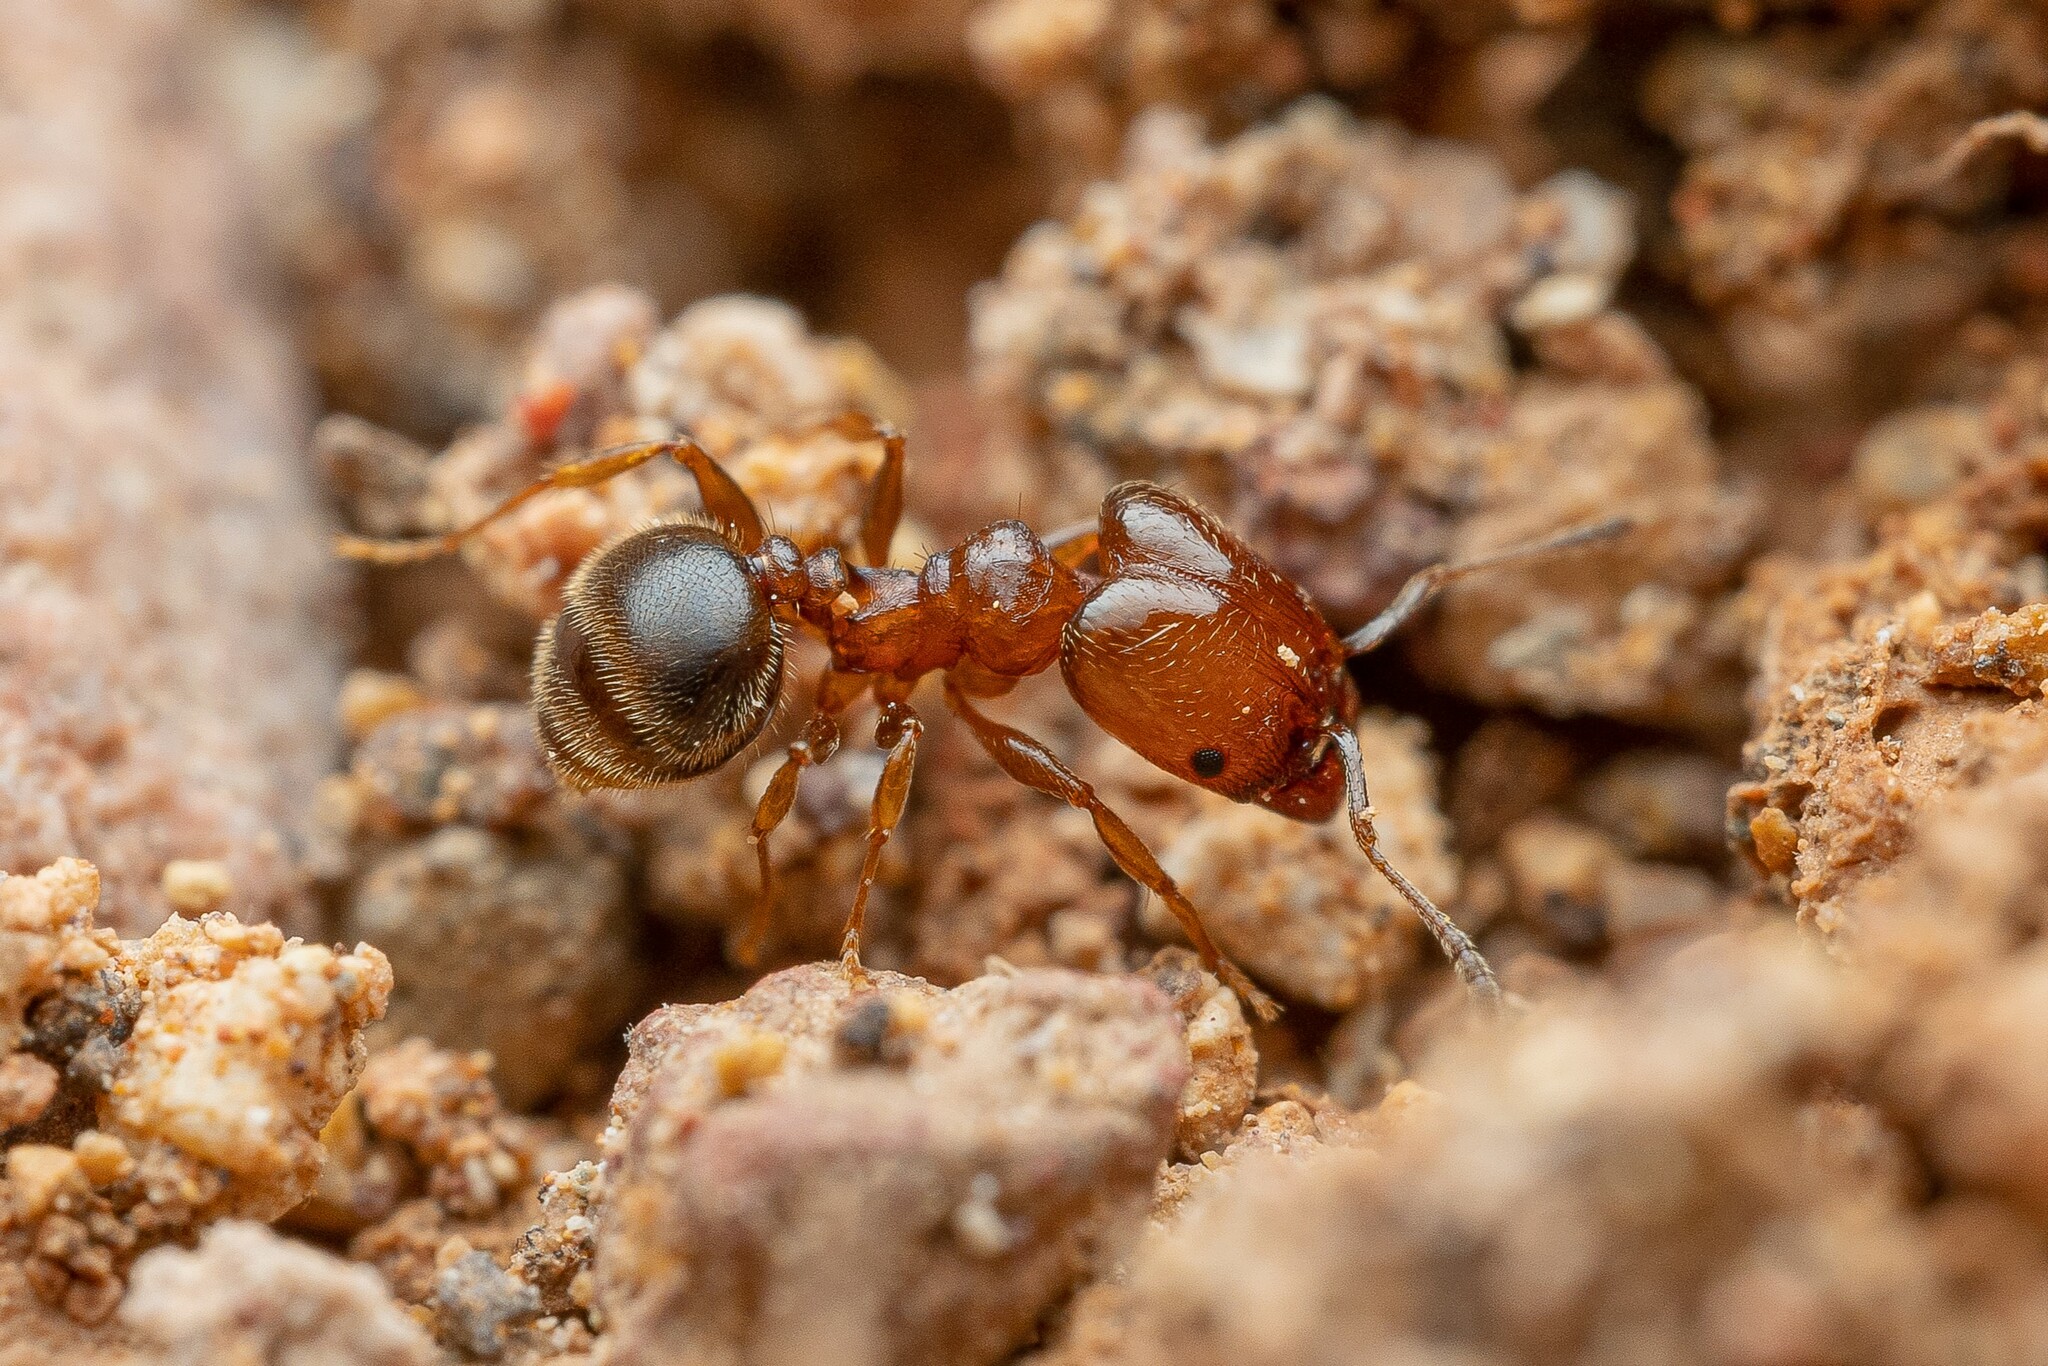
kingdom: Animalia
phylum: Arthropoda
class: Insecta
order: Hymenoptera
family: Formicidae
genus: Pheidole
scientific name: Pheidole diversipilosa
